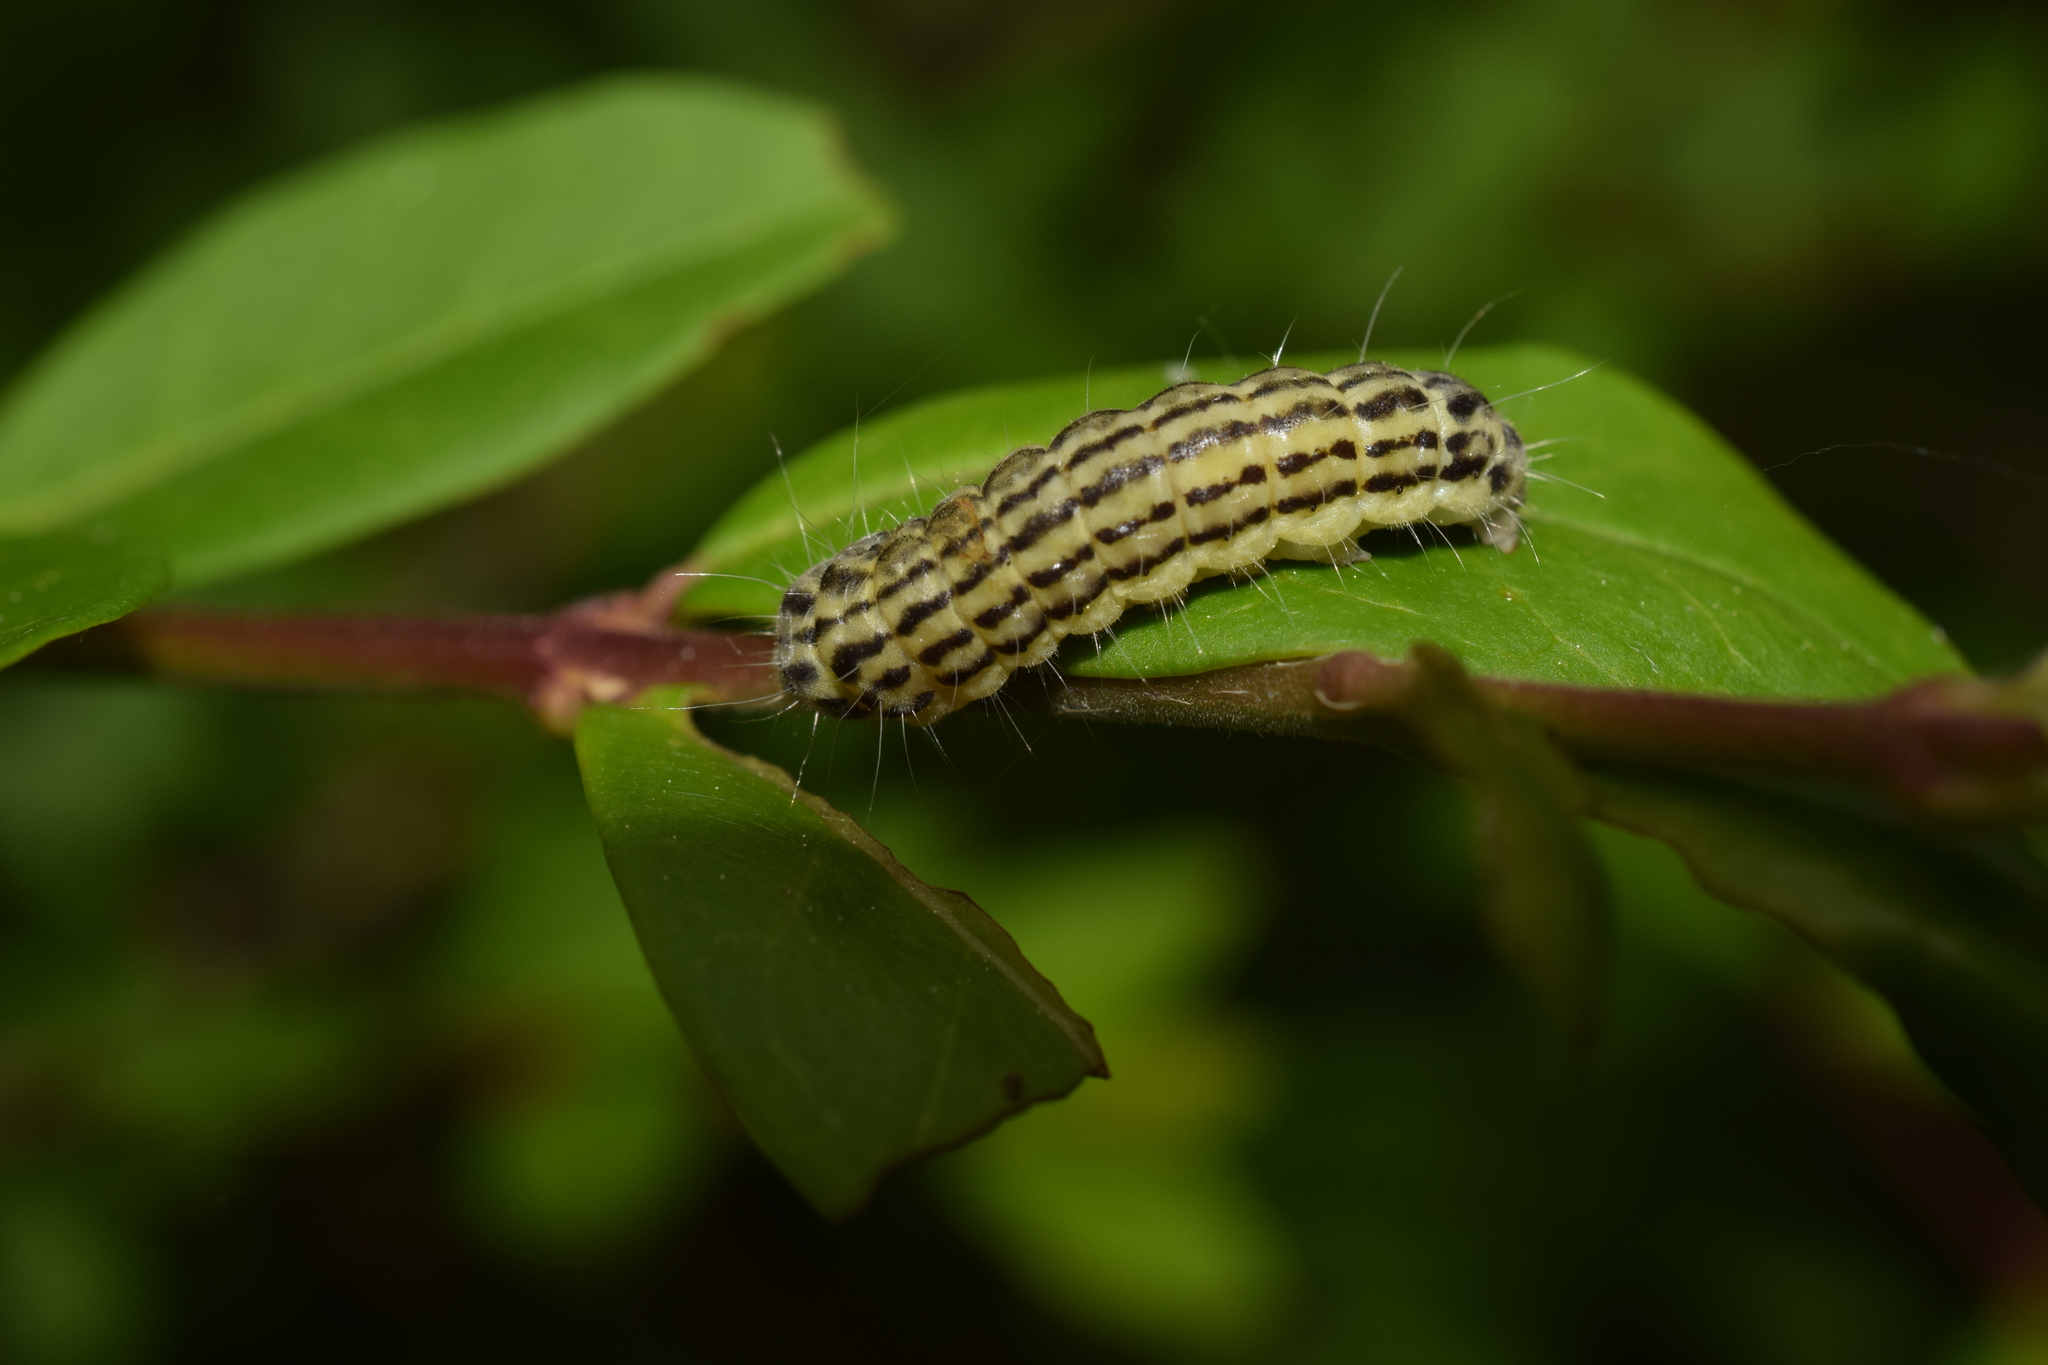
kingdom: Animalia
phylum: Arthropoda
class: Insecta
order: Lepidoptera
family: Zygaenidae
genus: Sinica
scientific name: Sinica sinica
